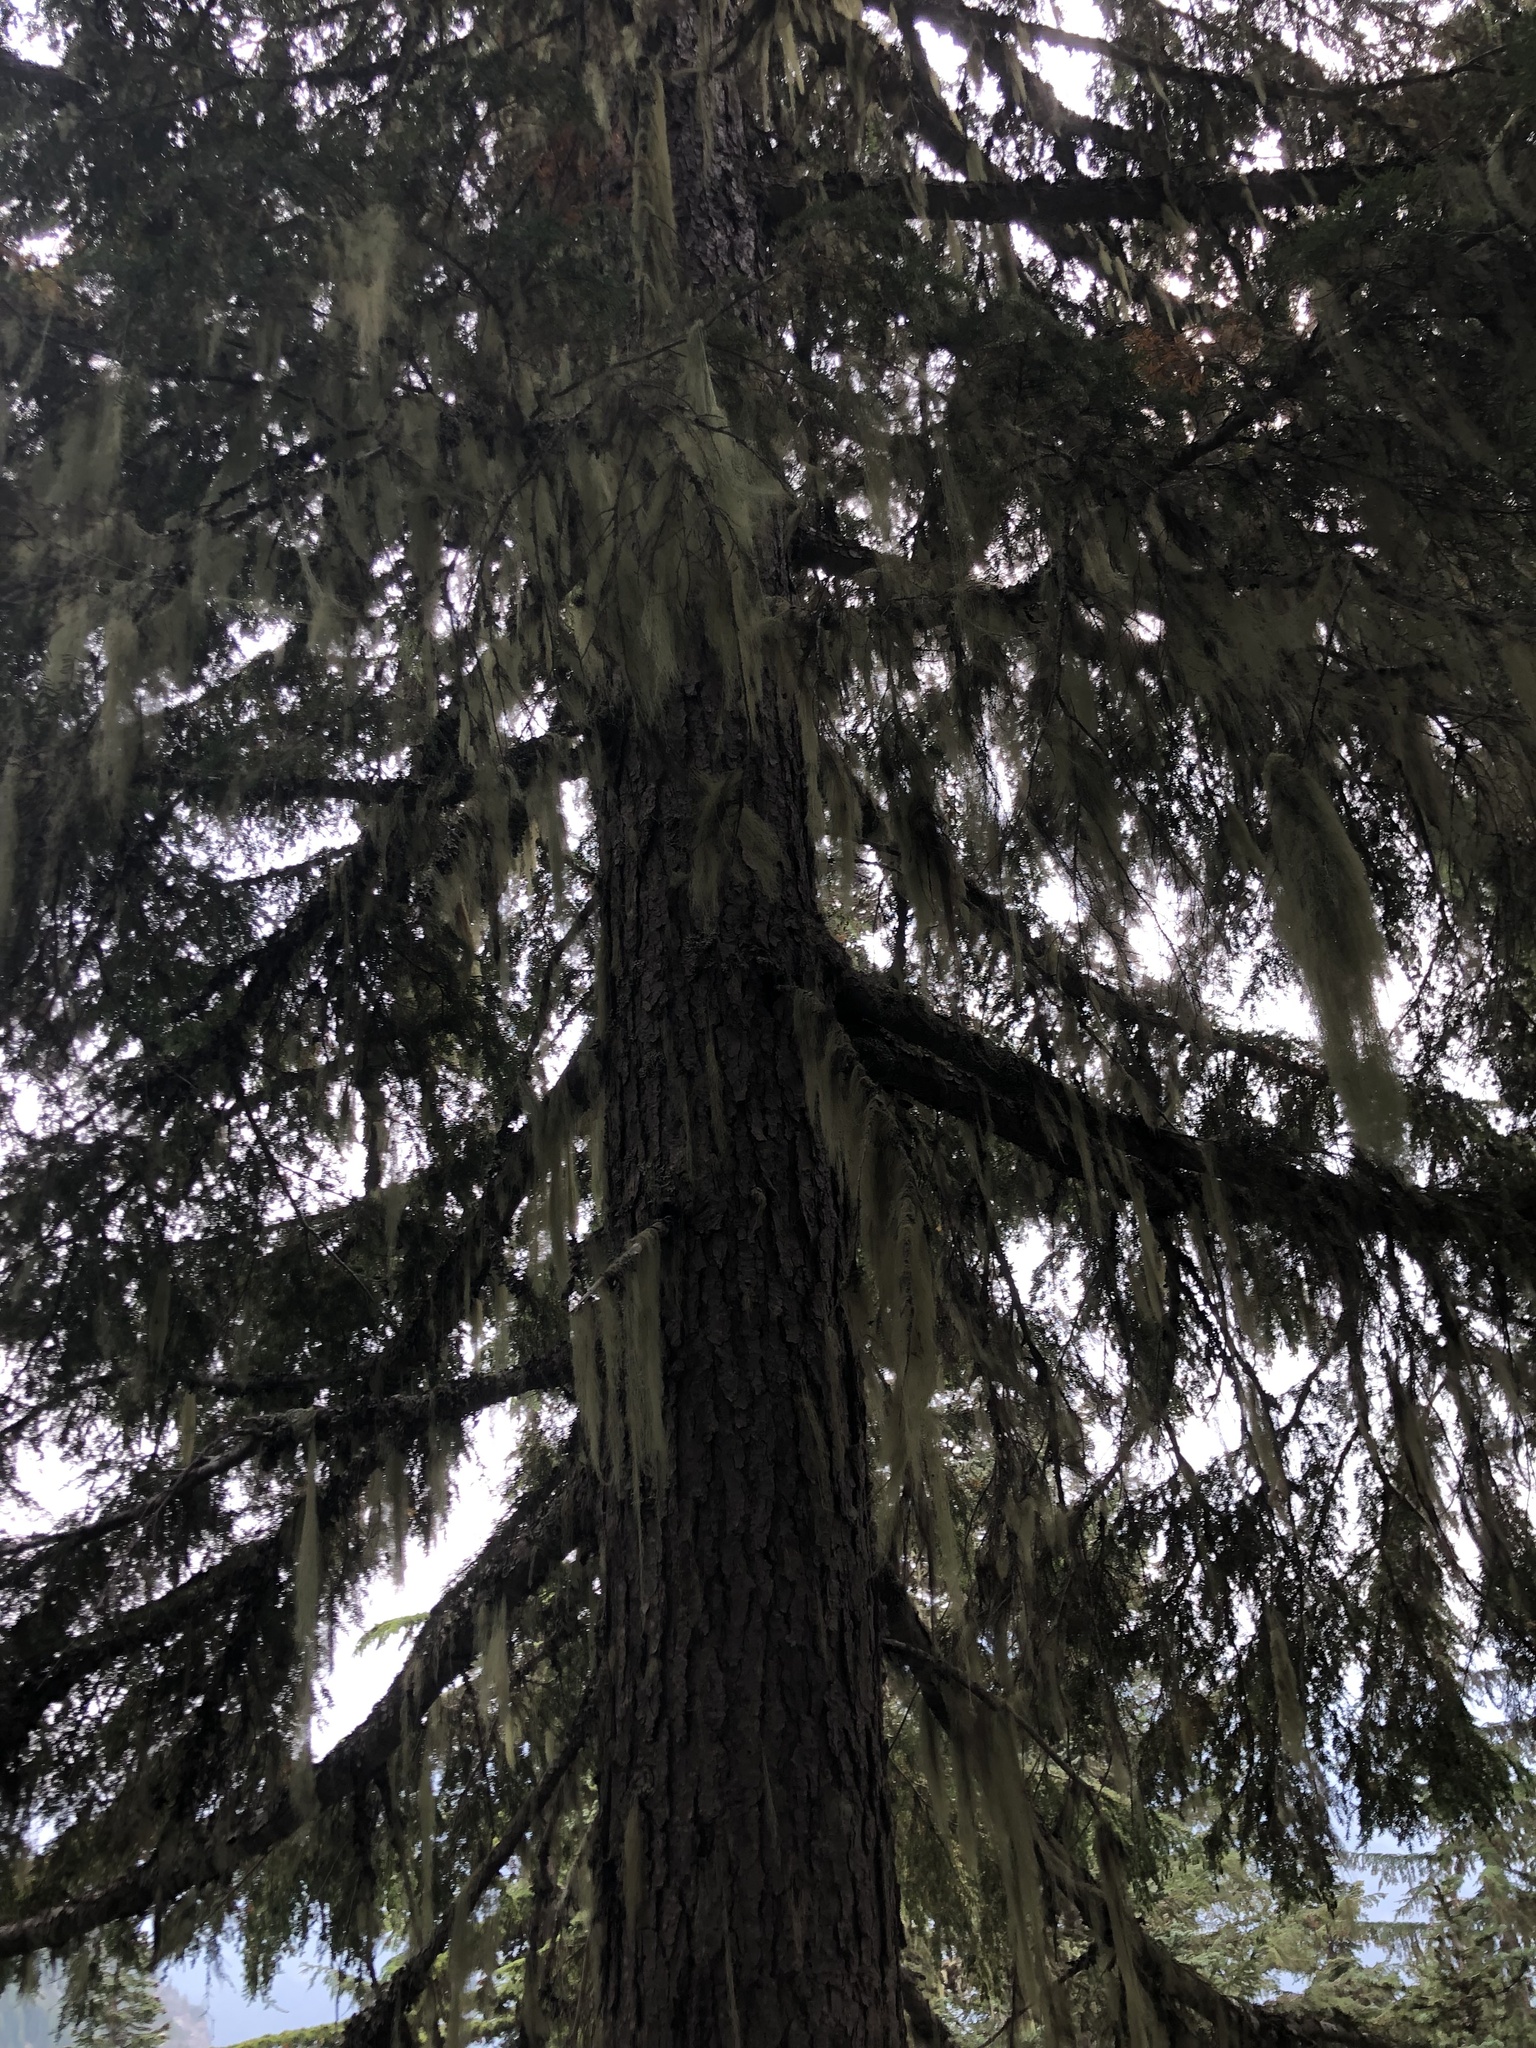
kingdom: Plantae
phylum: Tracheophyta
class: Pinopsida
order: Pinales
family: Pinaceae
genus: Tsuga
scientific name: Tsuga heterophylla
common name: Western hemlock
